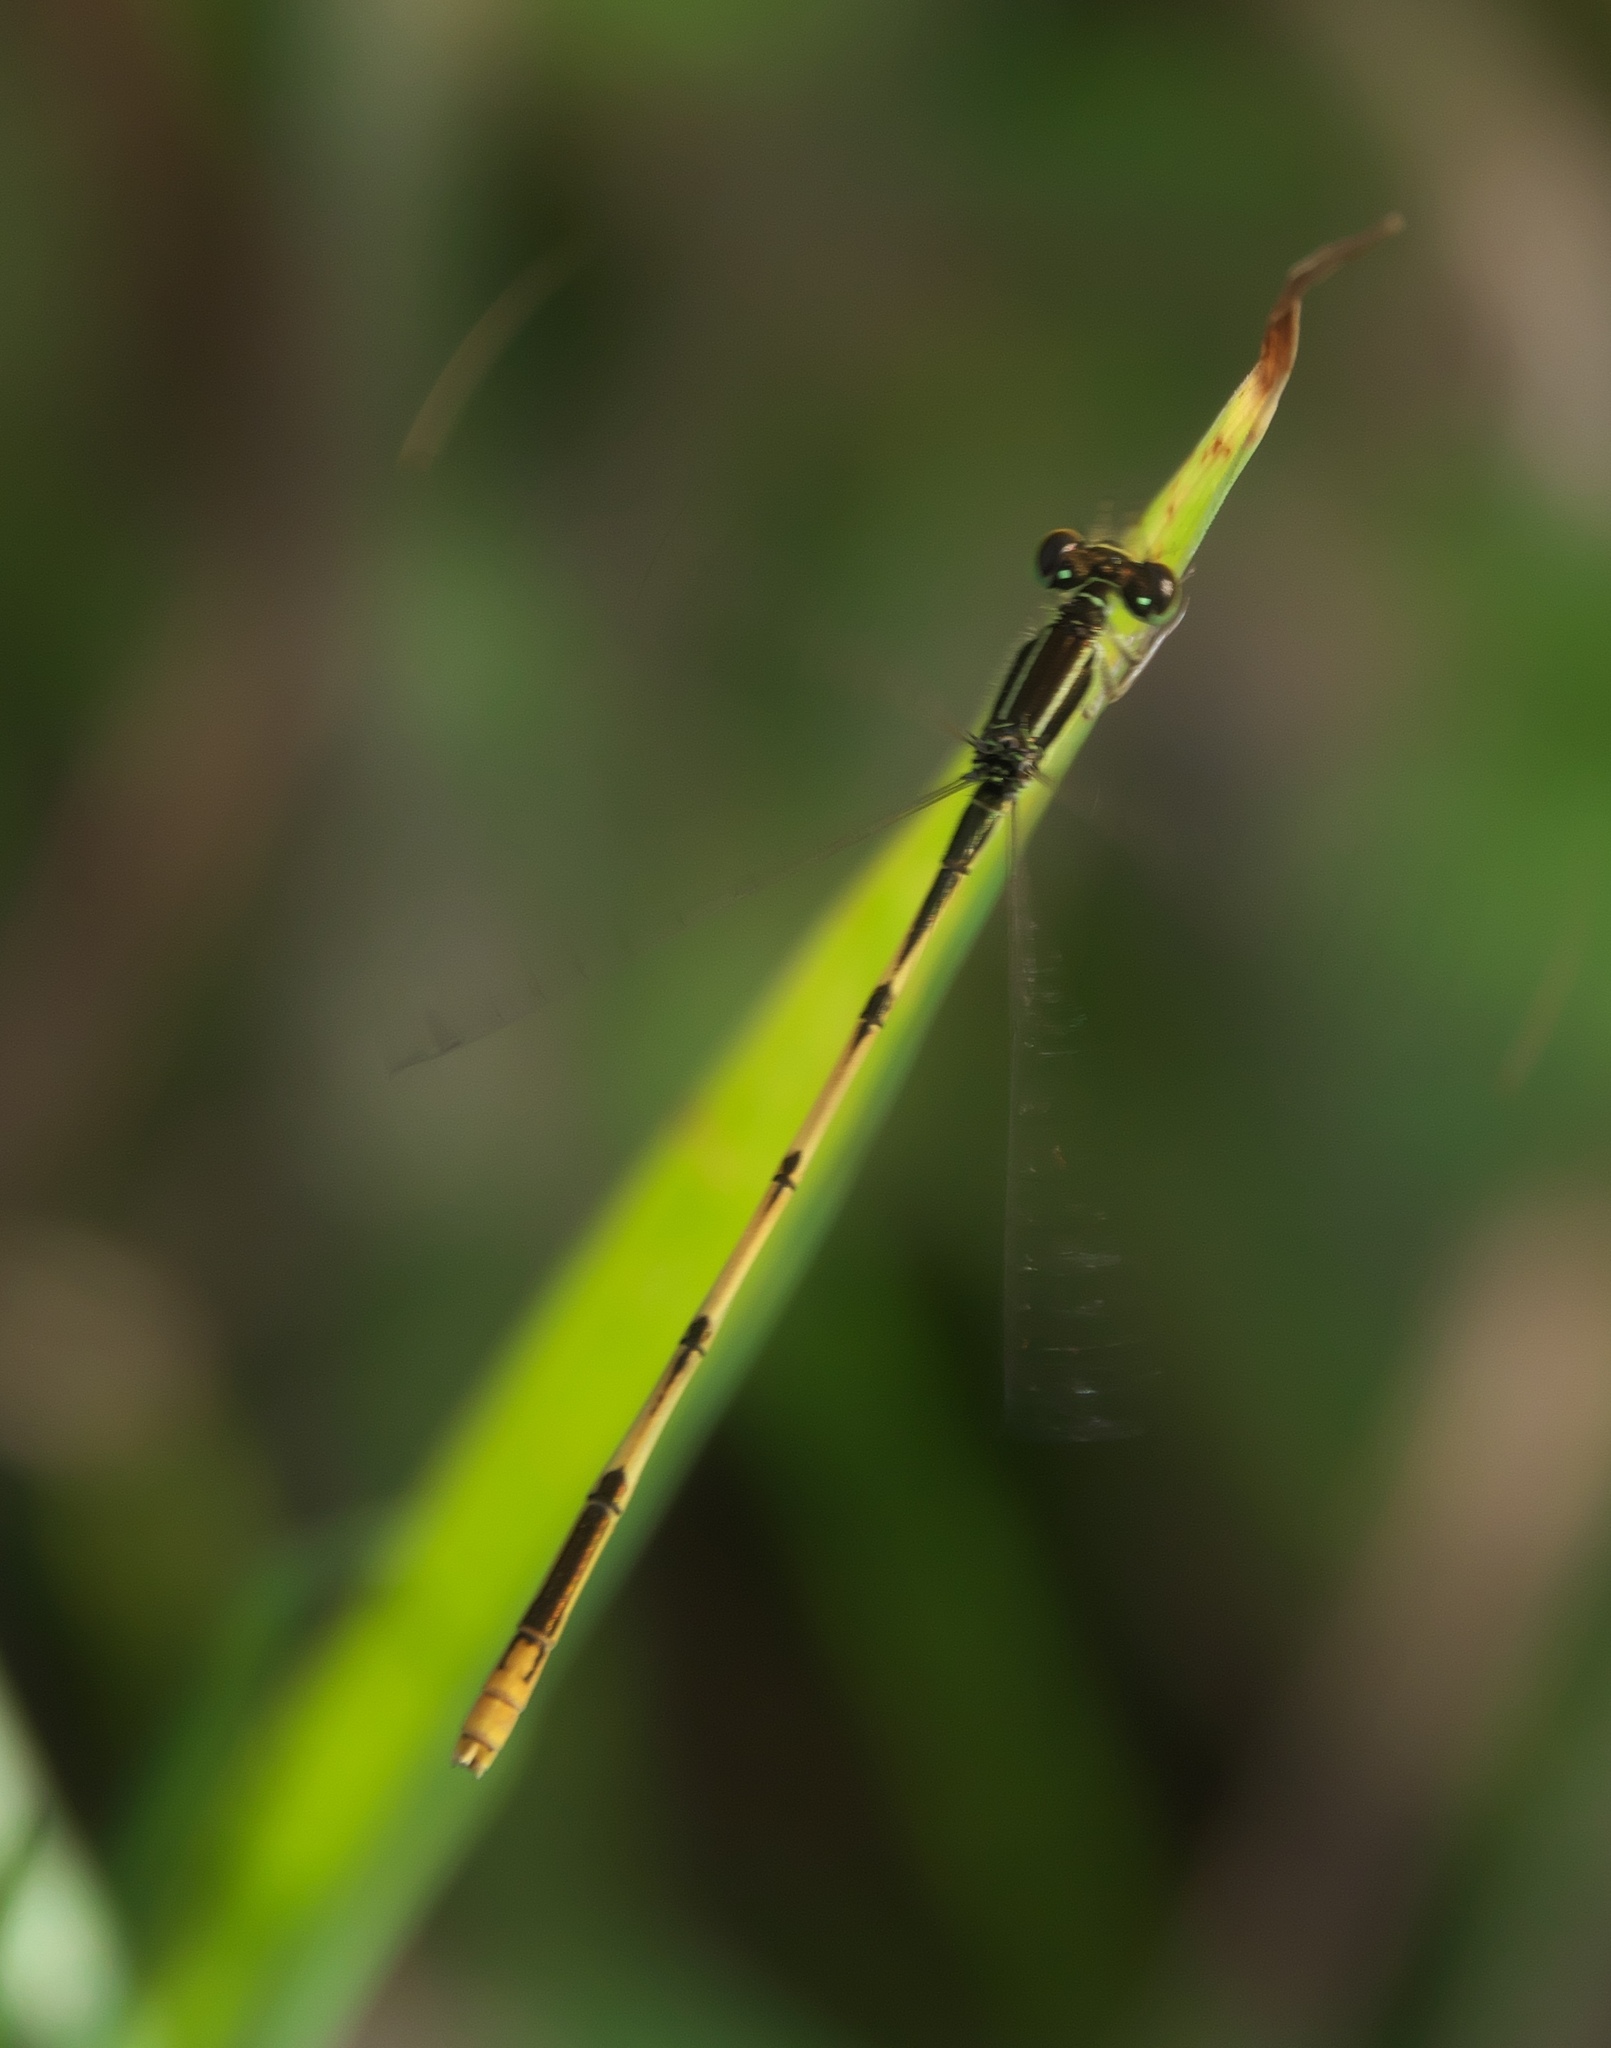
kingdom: Animalia
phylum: Arthropoda
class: Insecta
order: Odonata
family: Coenagrionidae
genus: Ischnura
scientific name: Ischnura hastata
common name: Citrine forktail
